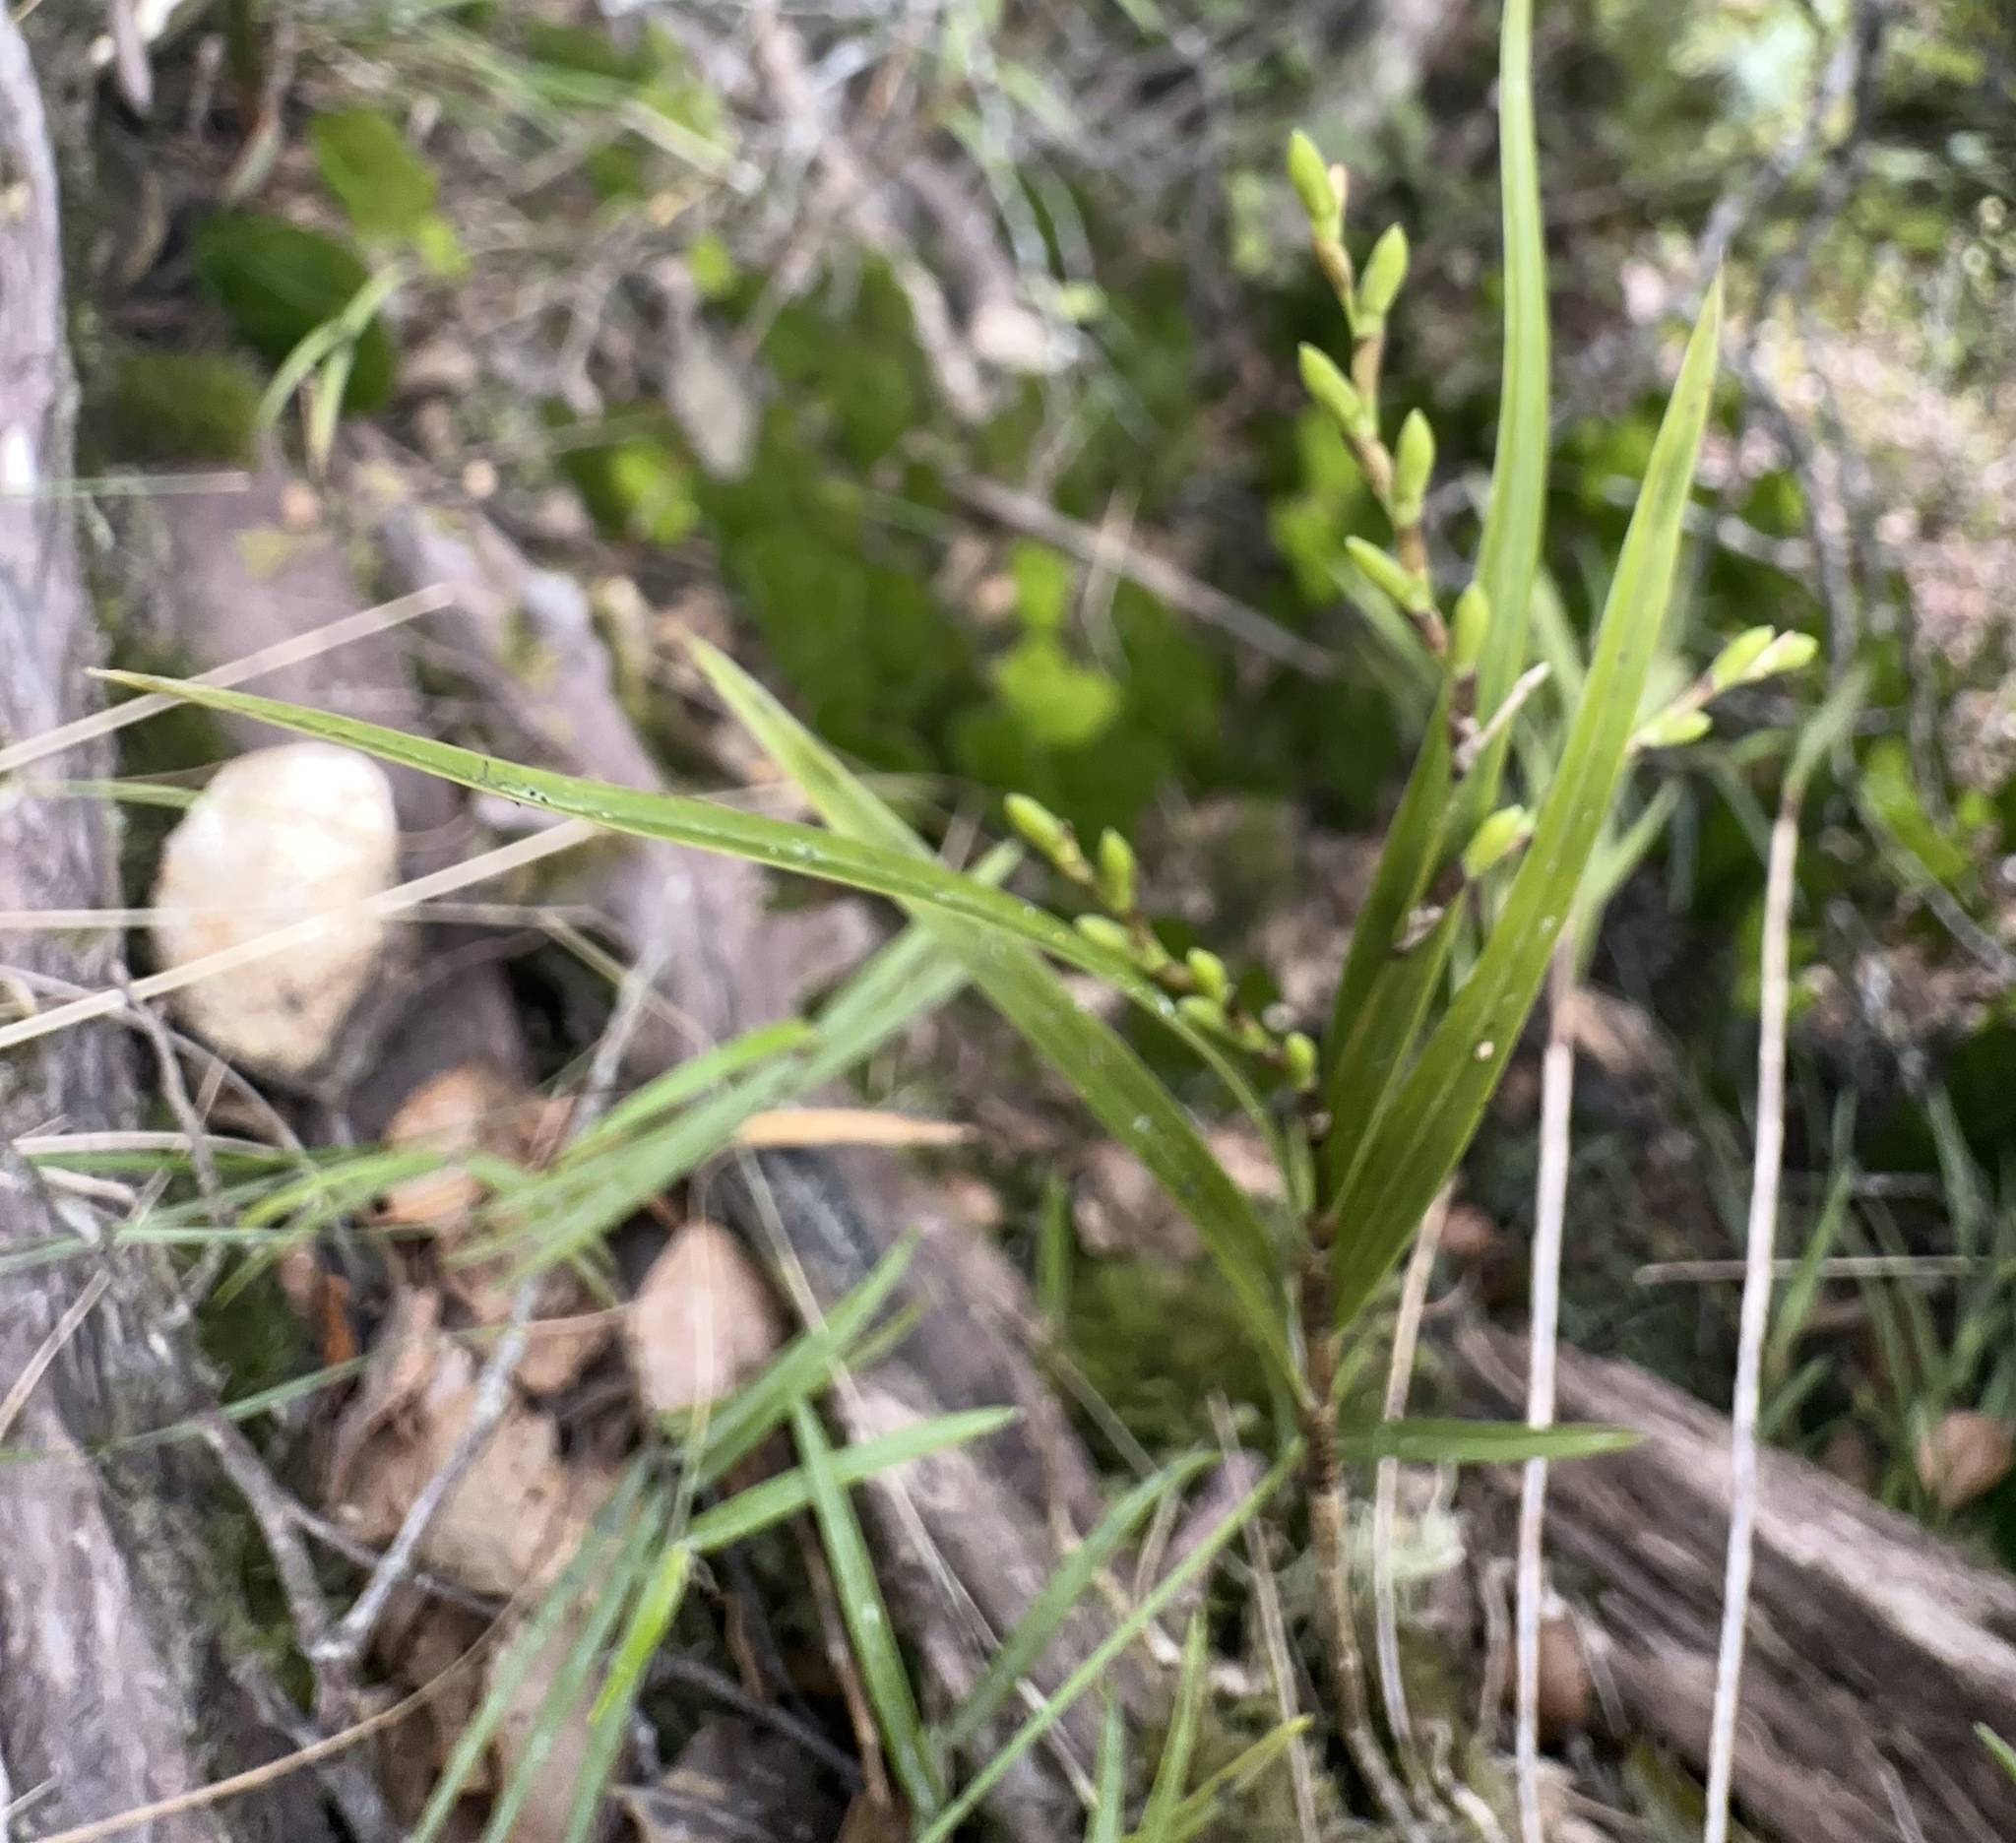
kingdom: Plantae
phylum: Tracheophyta
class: Liliopsida
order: Asparagales
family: Orchidaceae
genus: Earina
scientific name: Earina mucronata
